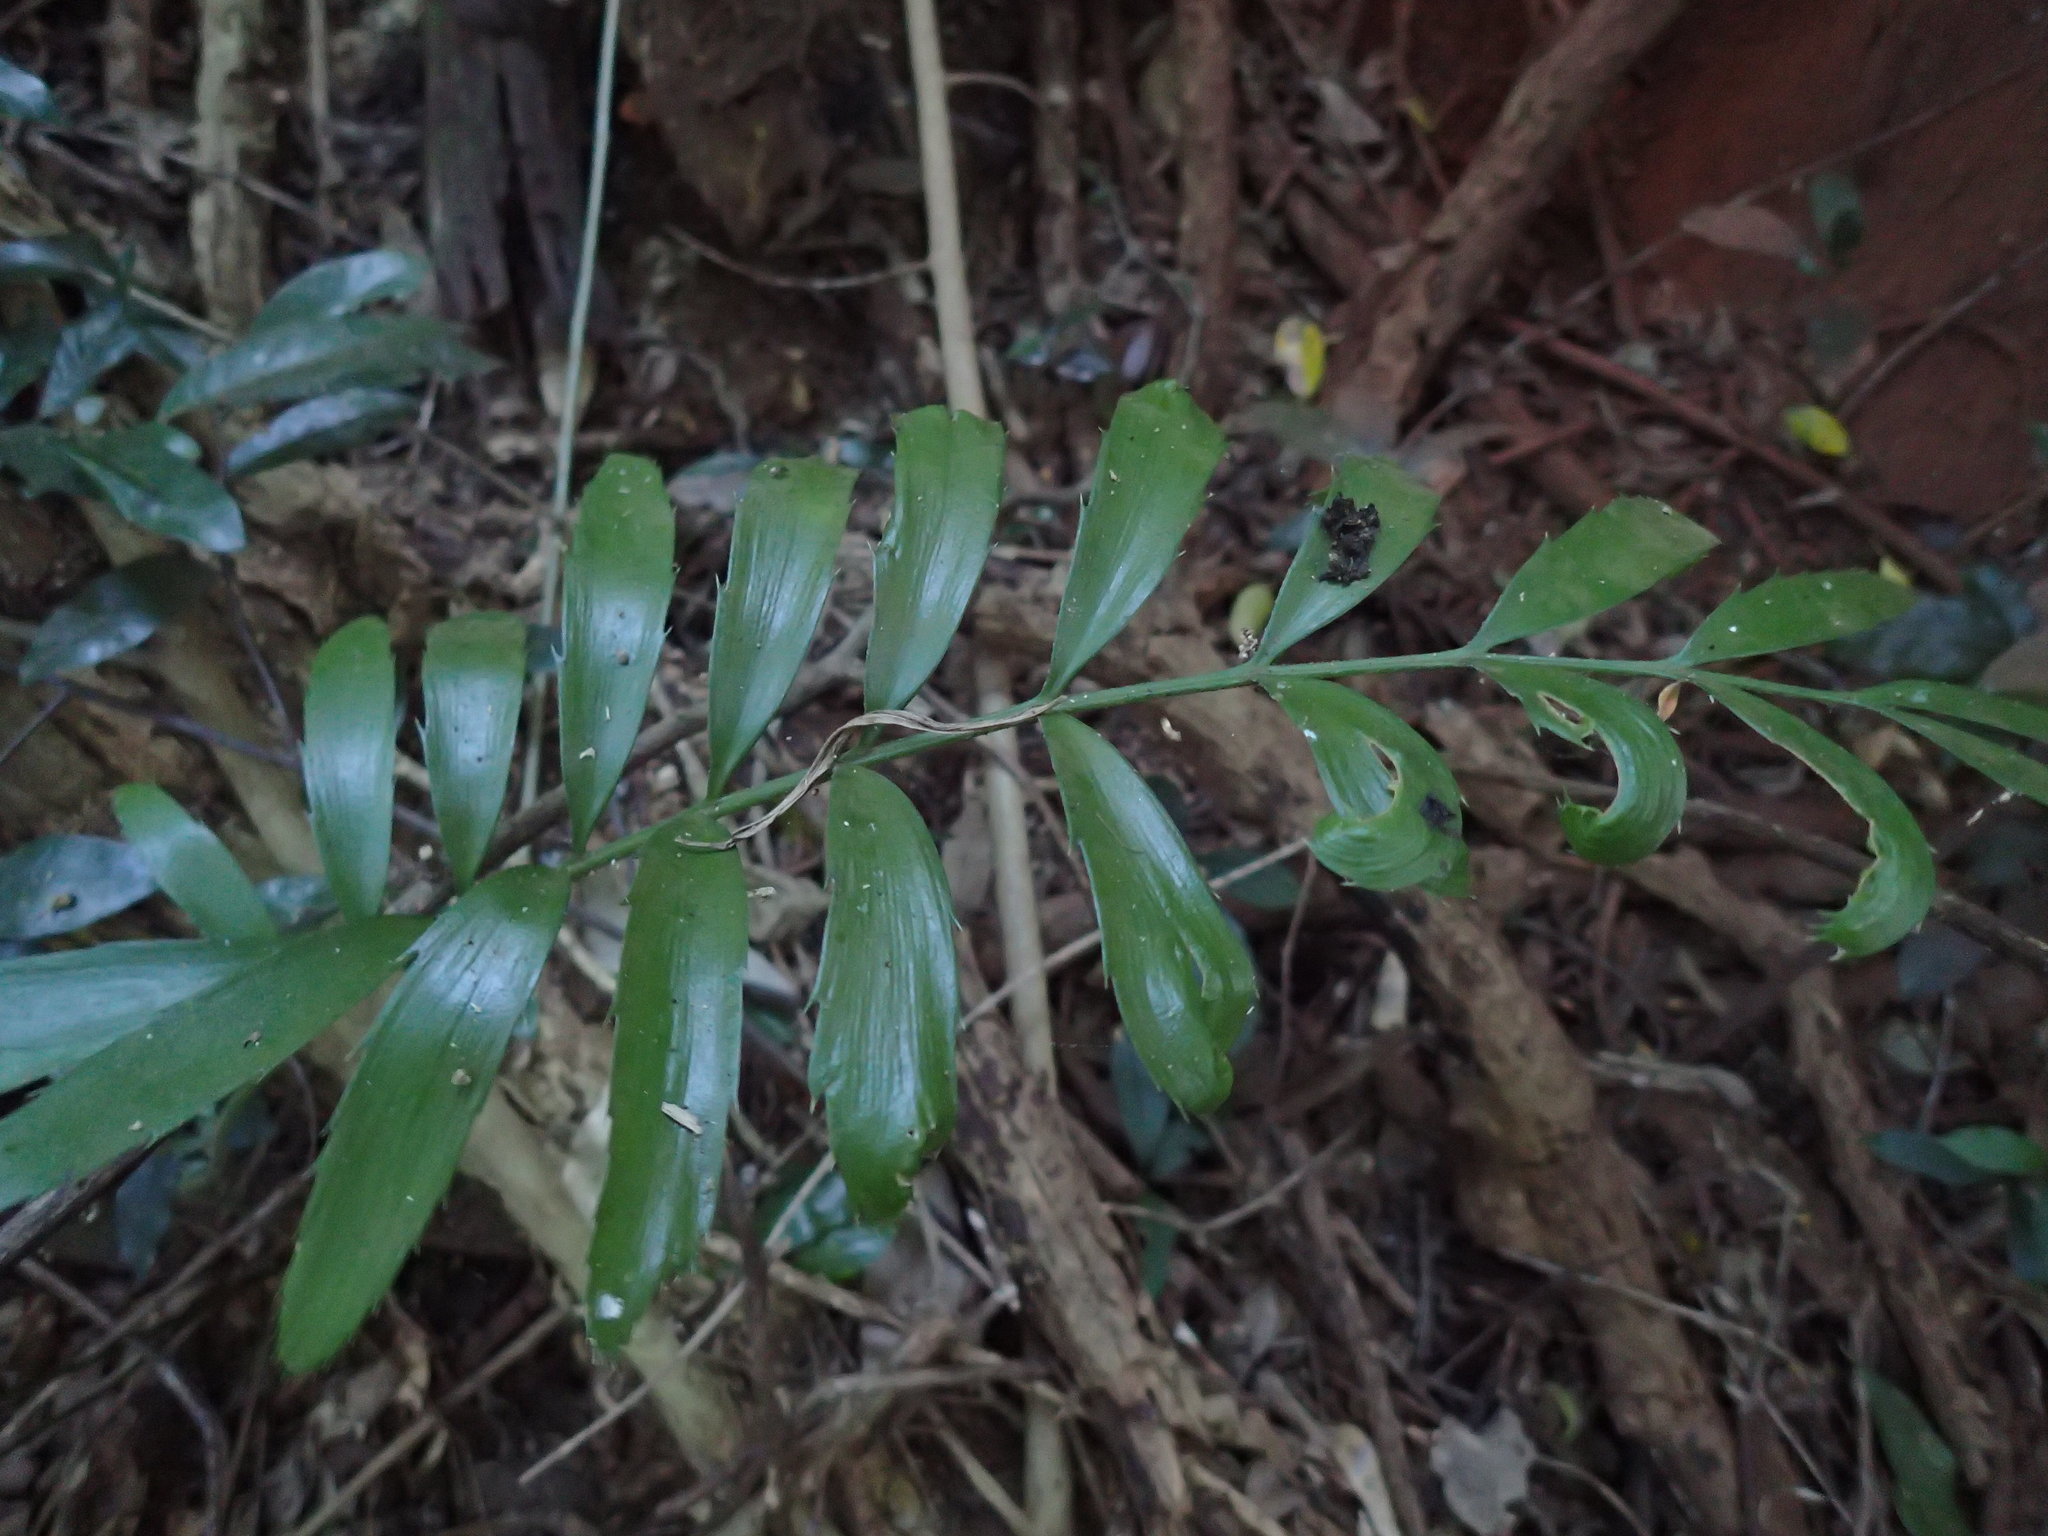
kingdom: Plantae
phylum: Tracheophyta
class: Cycadopsida
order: Cycadales
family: Zamiaceae
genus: Encephalartos
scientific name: Encephalartos villosus
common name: Poor man's cycad
